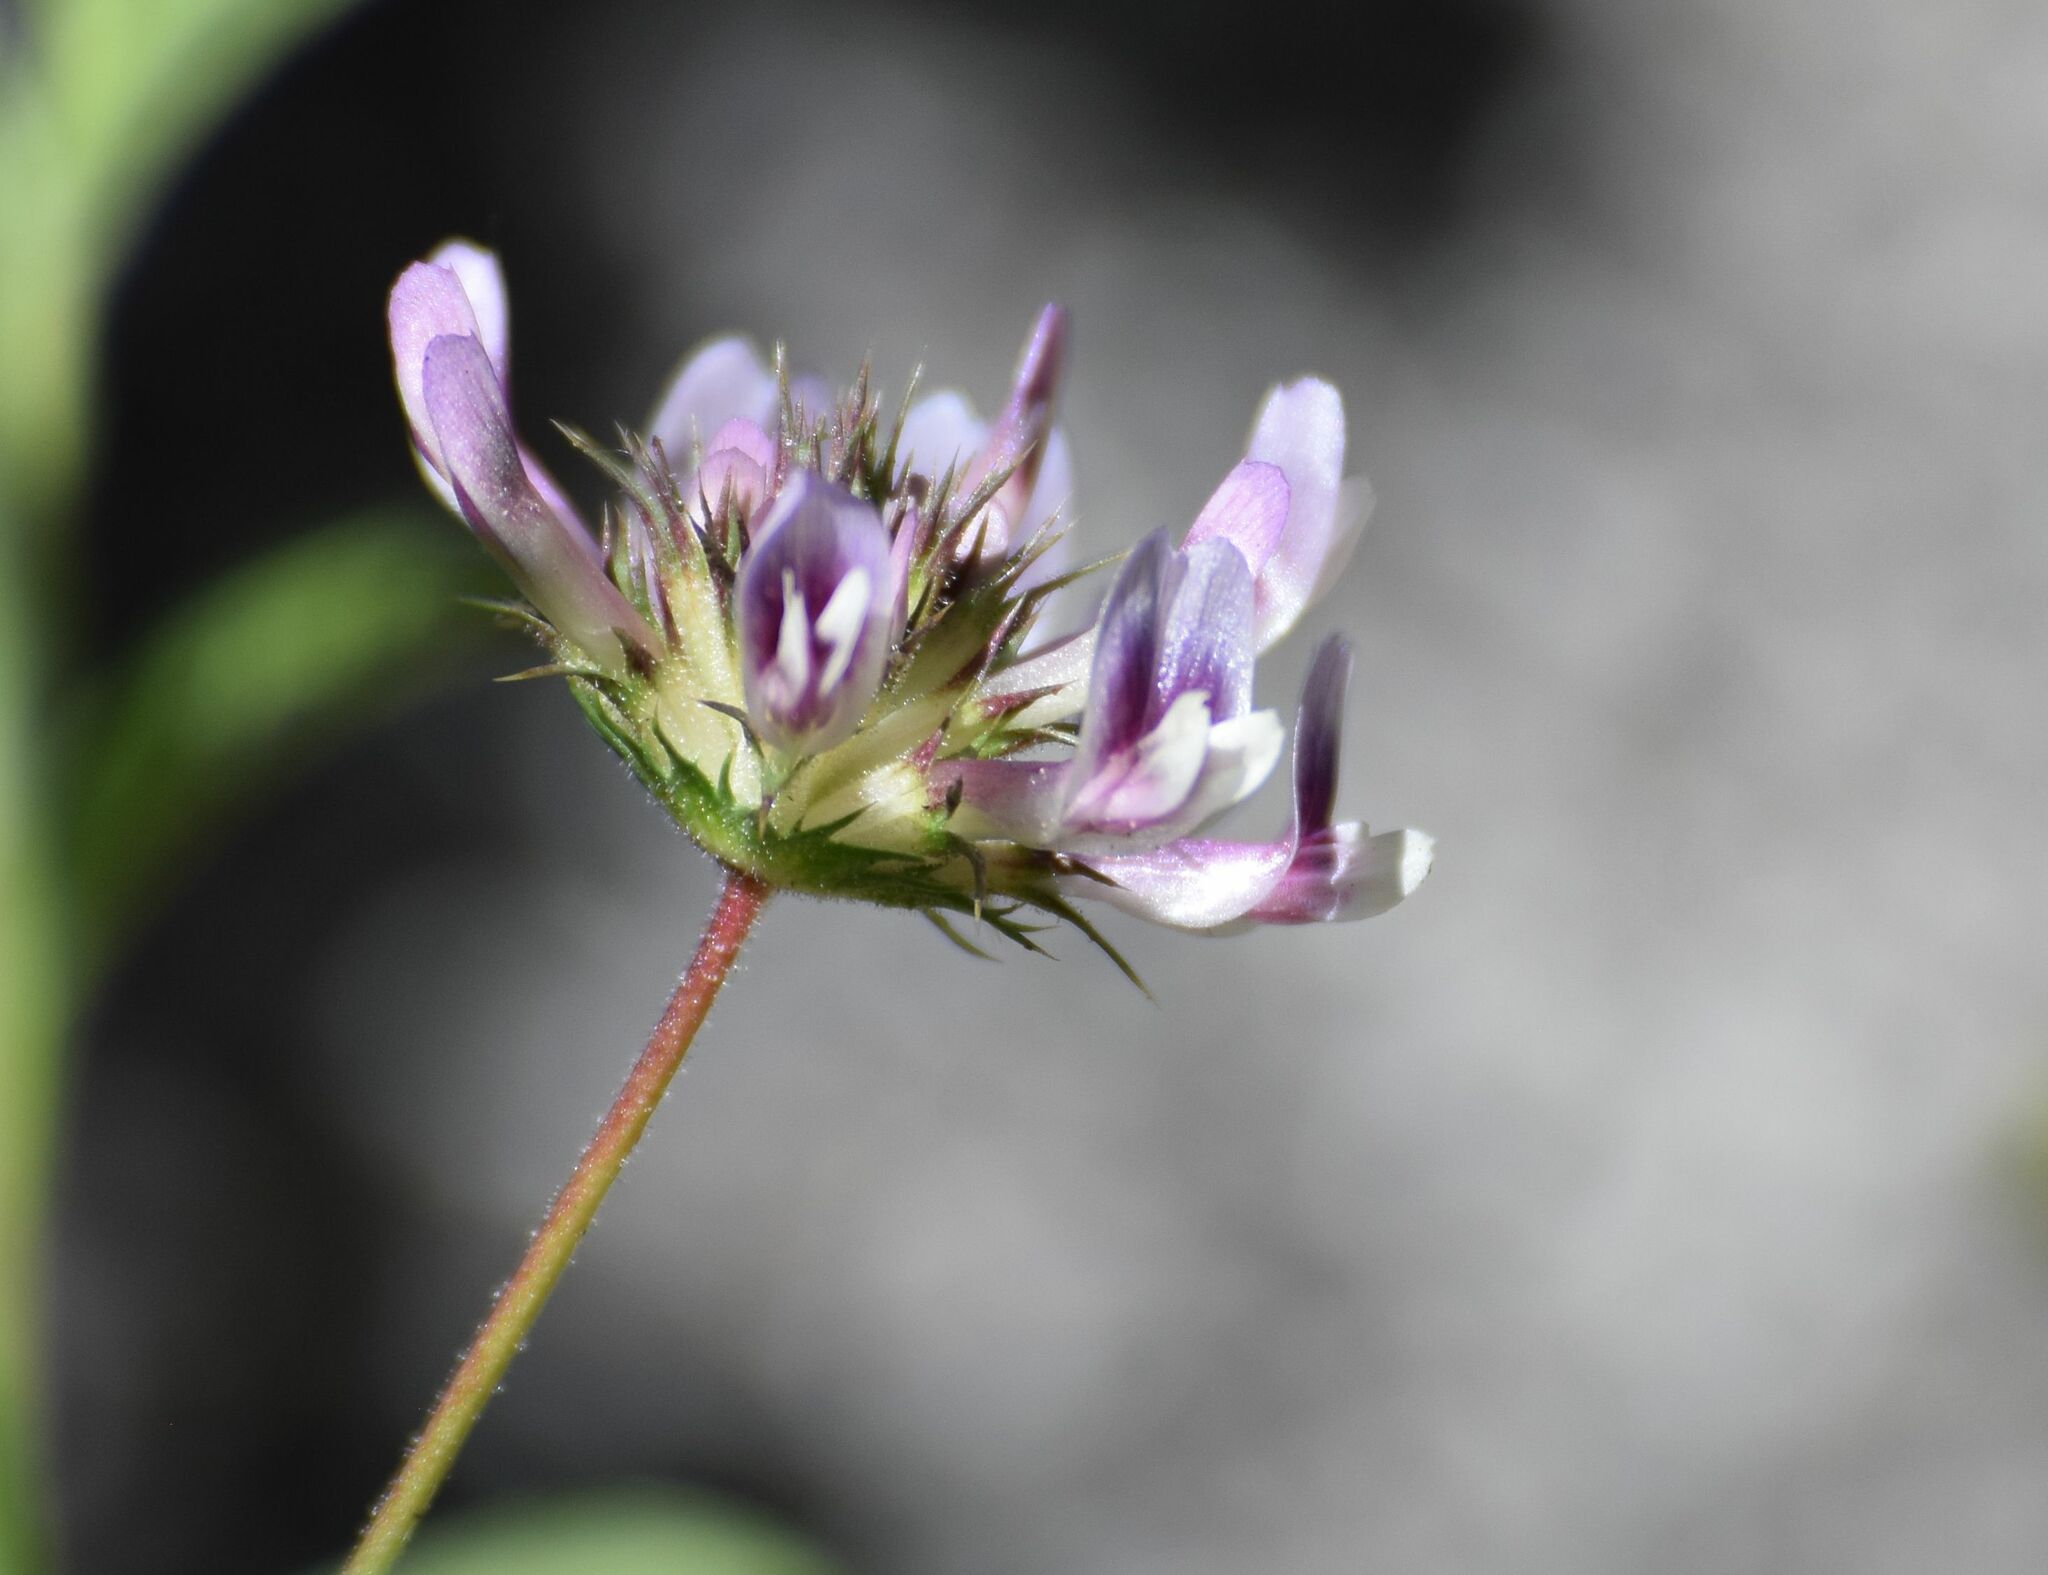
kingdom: Plantae
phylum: Tracheophyta
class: Magnoliopsida
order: Fabales
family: Fabaceae
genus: Trifolium
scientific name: Trifolium obtusiflorum
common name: Clammy clover
